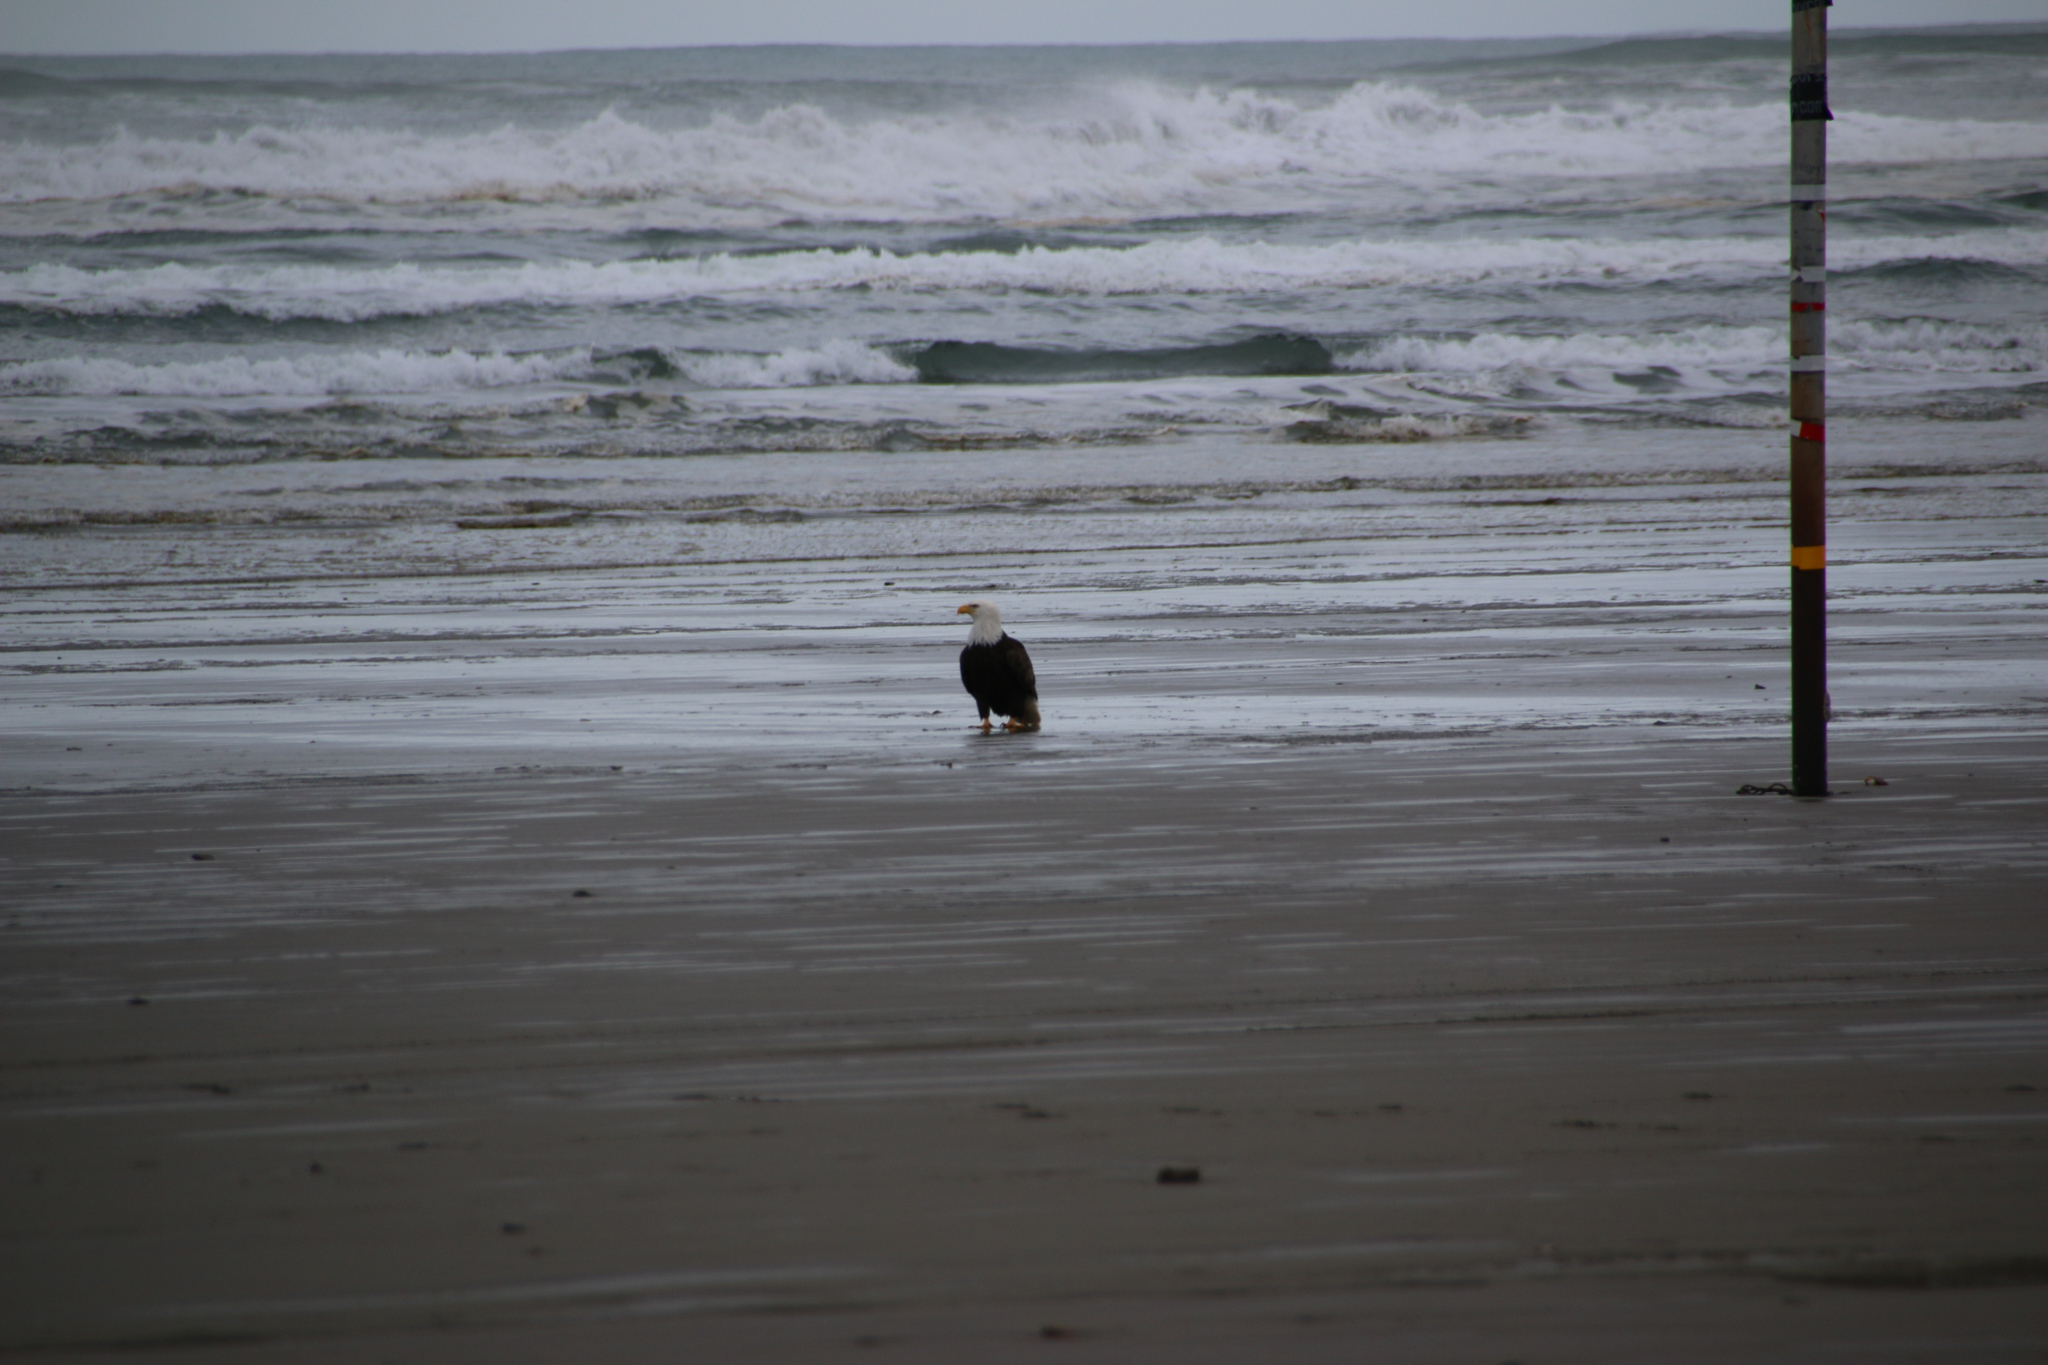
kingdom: Animalia
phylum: Chordata
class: Aves
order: Accipitriformes
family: Accipitridae
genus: Haliaeetus
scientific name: Haliaeetus leucocephalus
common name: Bald eagle
